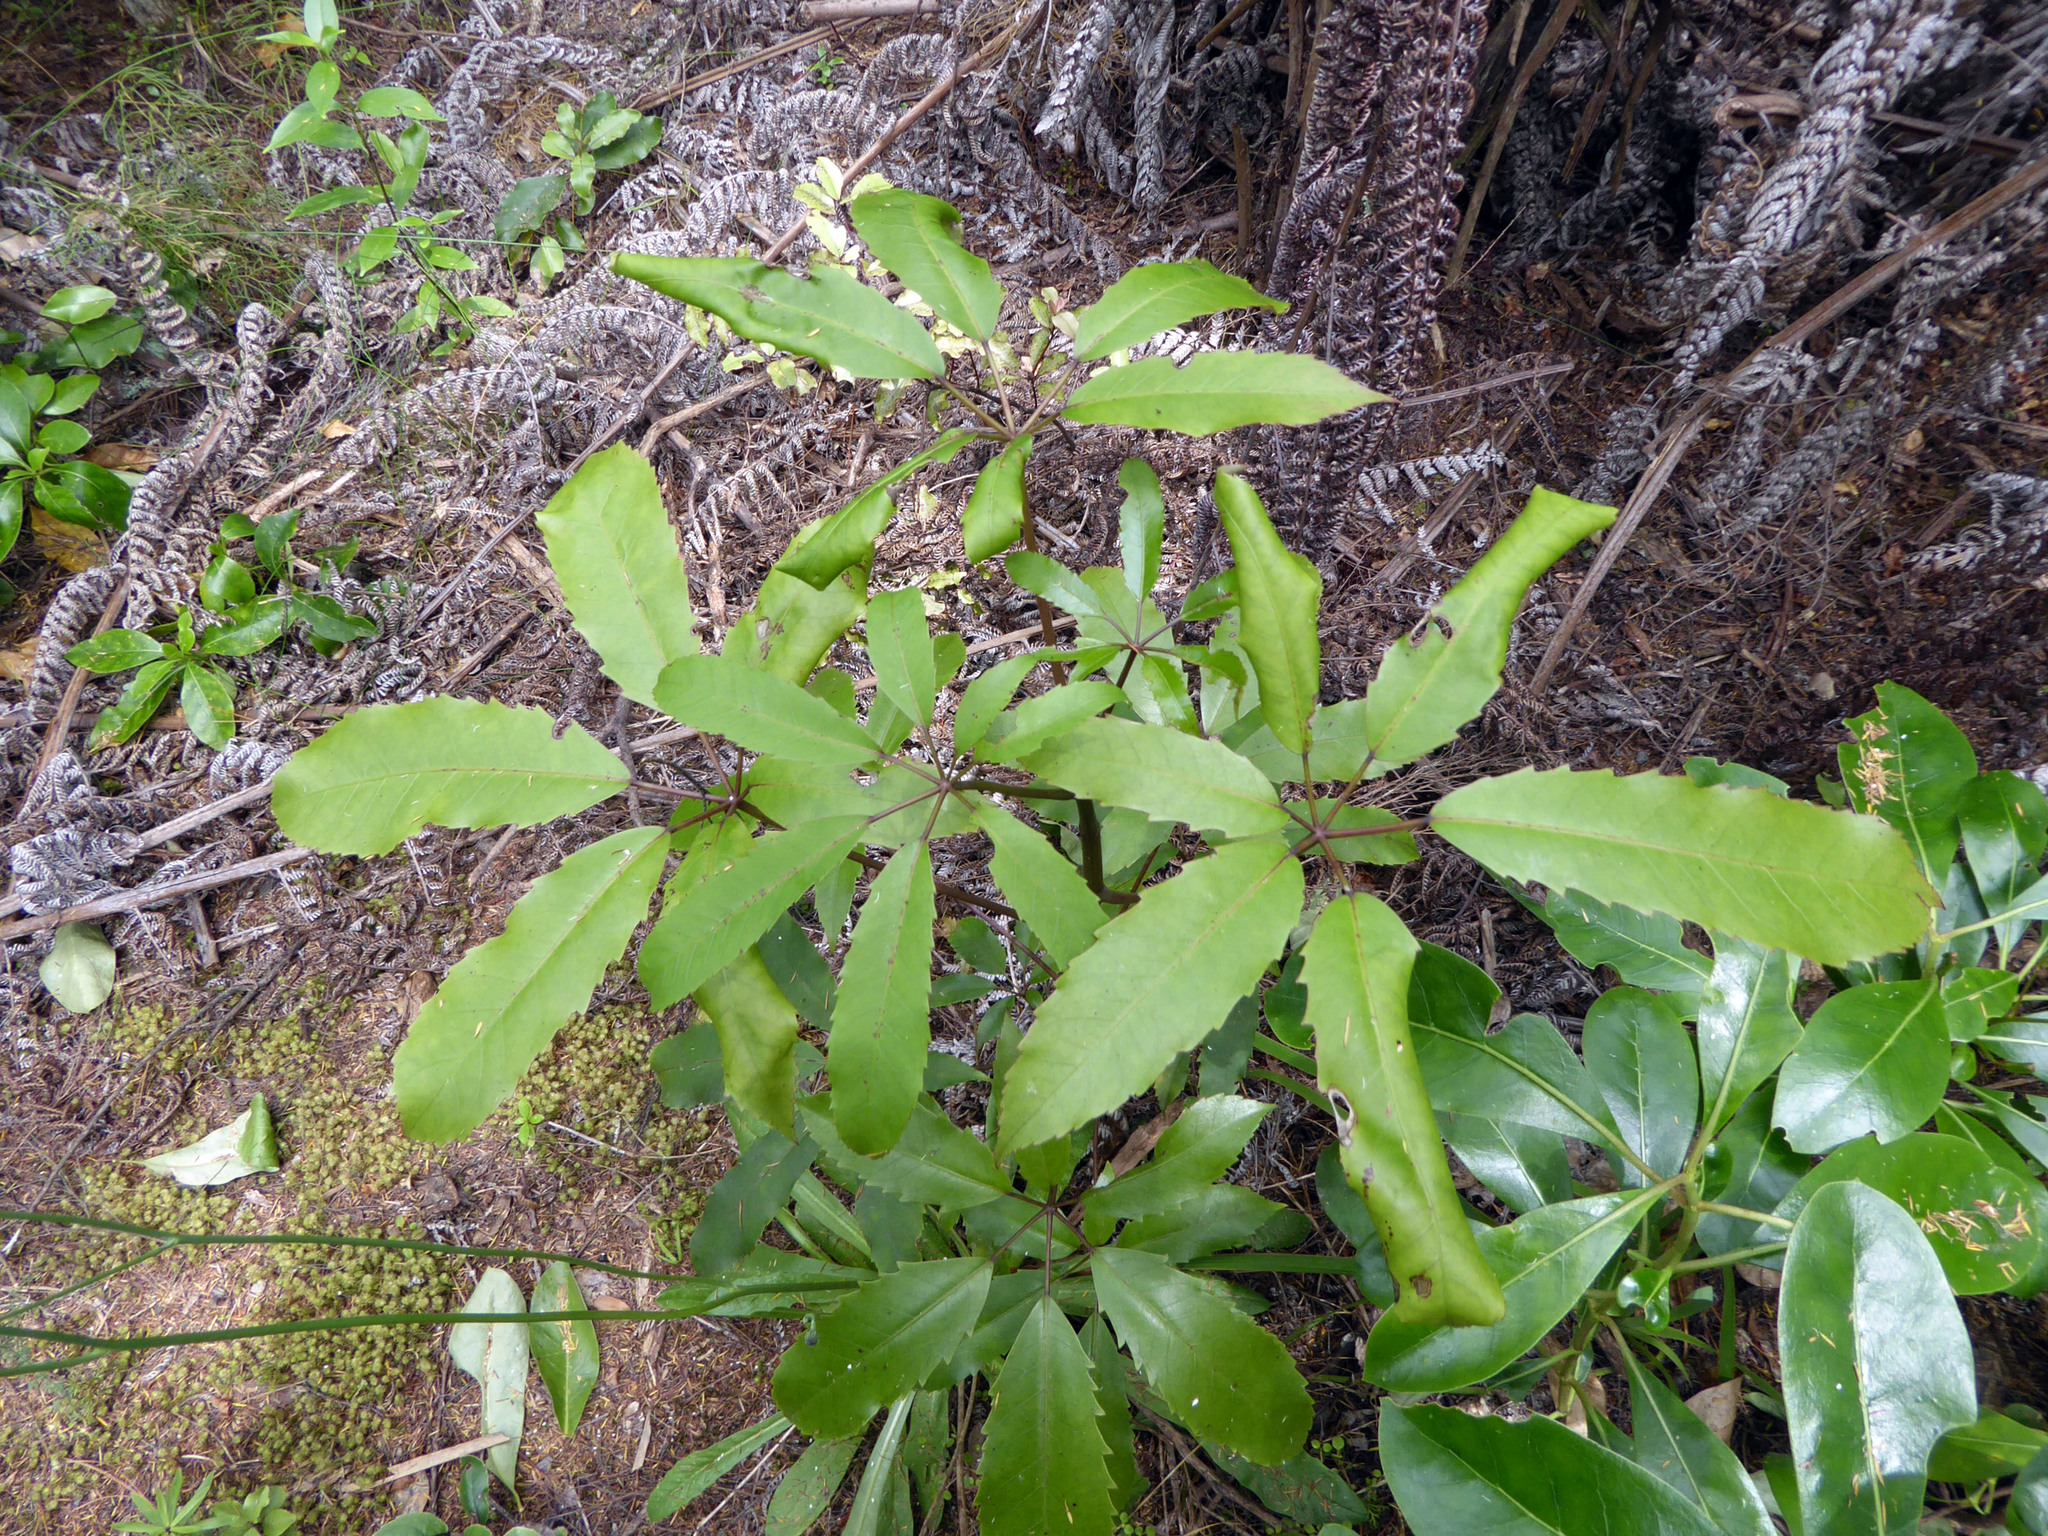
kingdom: Plantae
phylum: Tracheophyta
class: Magnoliopsida
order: Apiales
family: Araliaceae
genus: Neopanax
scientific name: Neopanax arboreus
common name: Five-fingers
